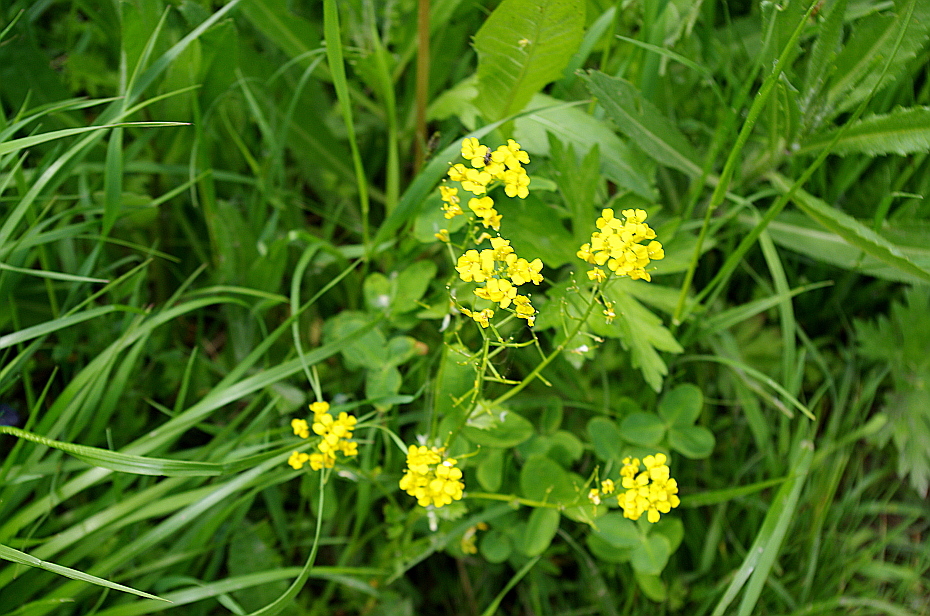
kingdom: Plantae
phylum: Tracheophyta
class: Magnoliopsida
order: Brassicales
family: Brassicaceae
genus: Barbarea
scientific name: Barbarea vulgaris
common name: Cressy-greens
